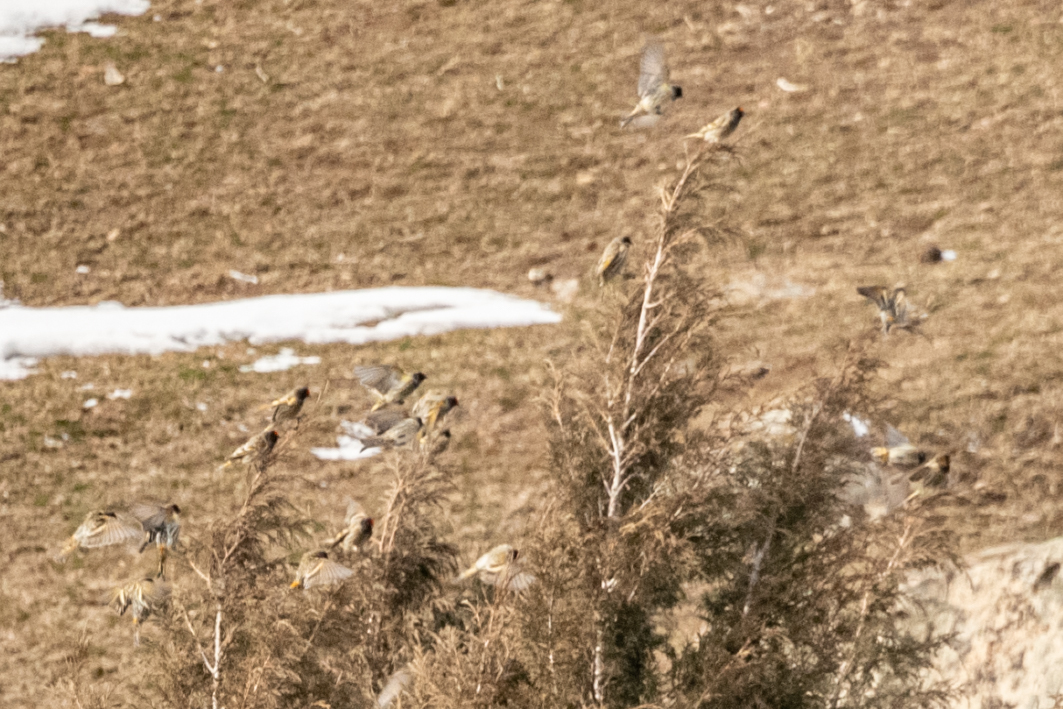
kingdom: Animalia
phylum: Chordata
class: Aves
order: Passeriformes
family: Fringillidae
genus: Serinus
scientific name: Serinus pusillus
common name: Red-fronted serin
